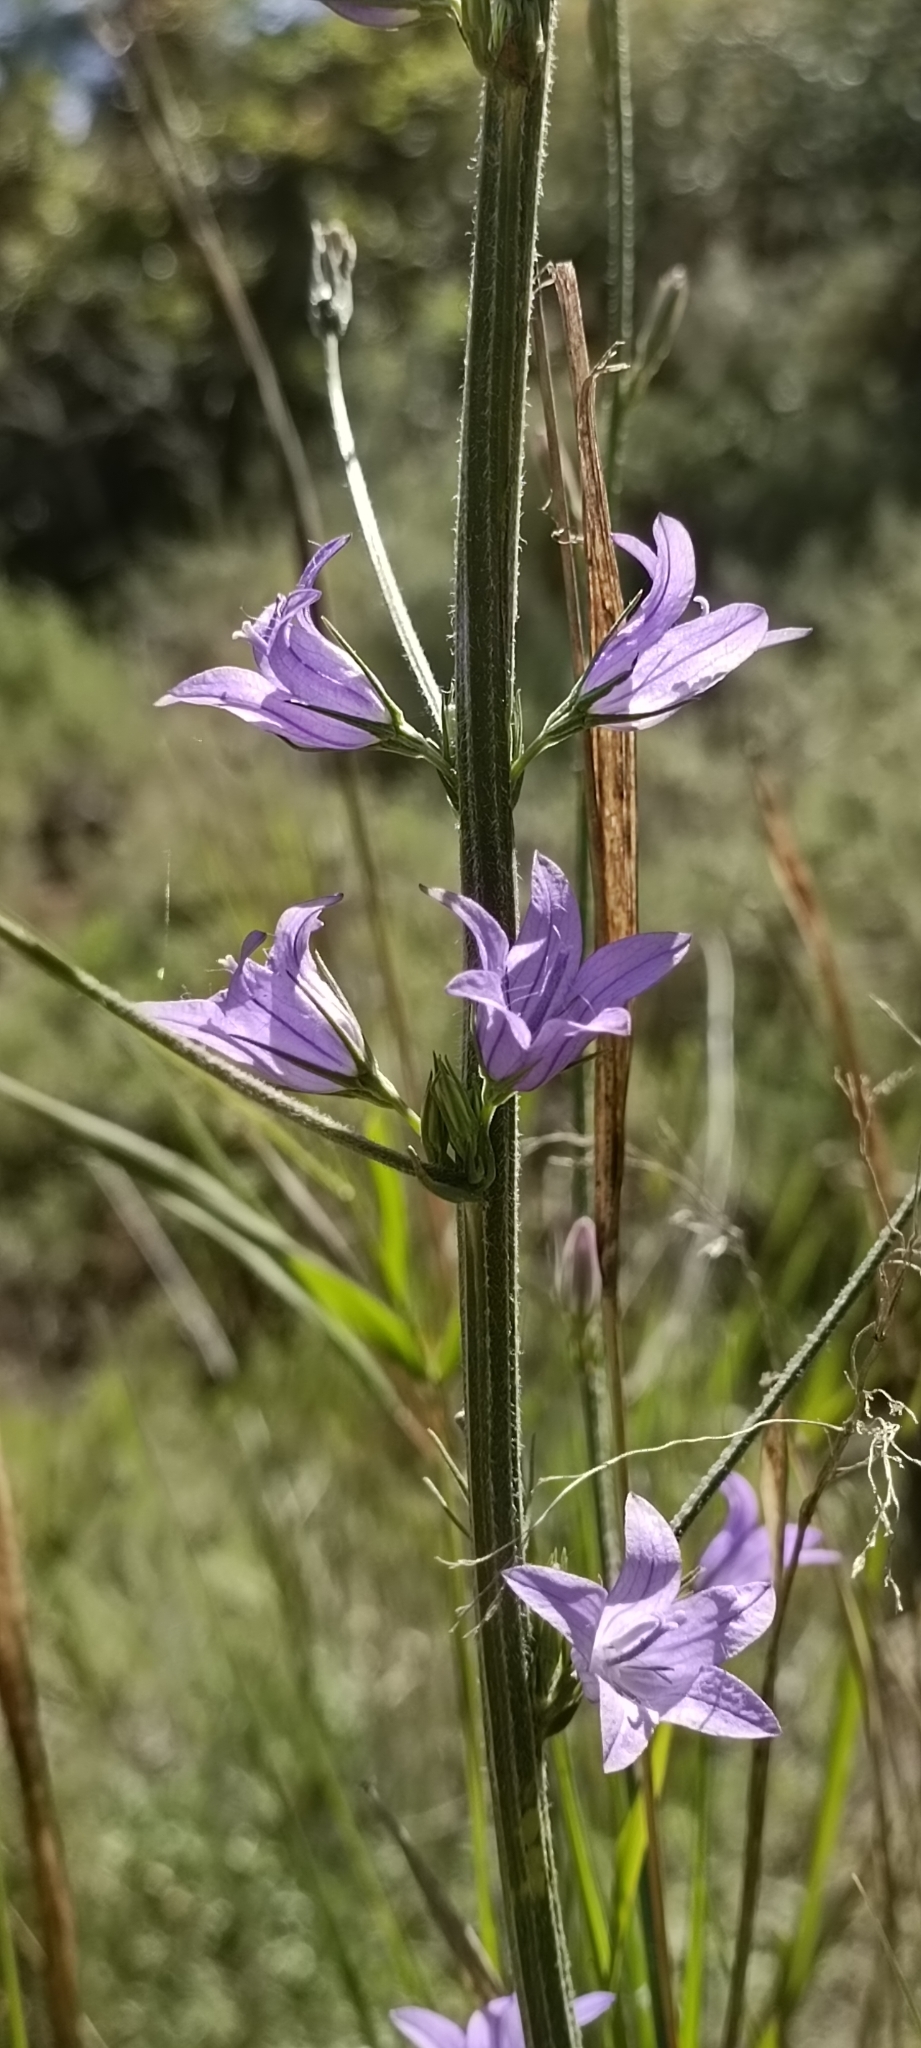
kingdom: Plantae
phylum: Tracheophyta
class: Magnoliopsida
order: Asterales
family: Campanulaceae
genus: Campanula
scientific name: Campanula rapunculus
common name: Rampion bellflower
